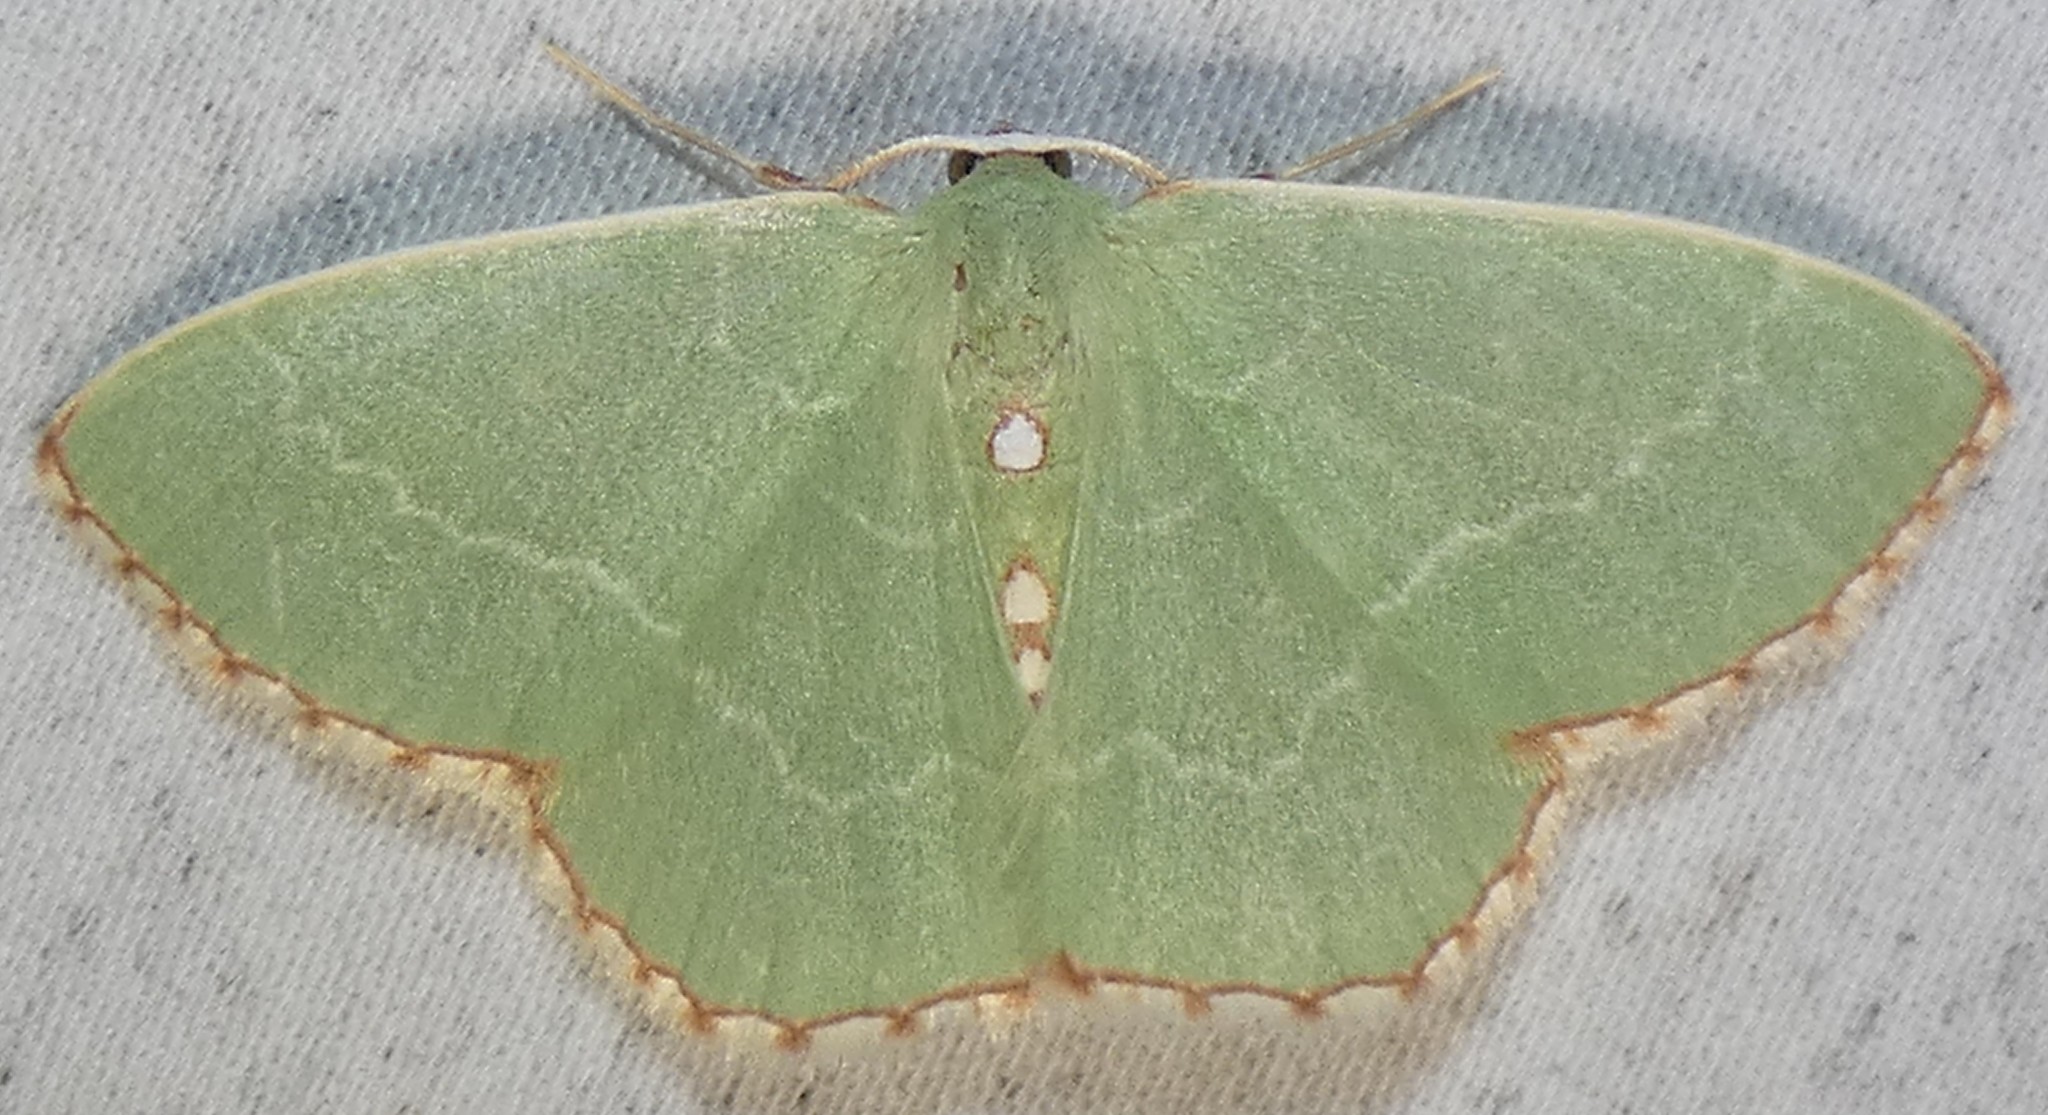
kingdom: Animalia
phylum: Arthropoda
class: Insecta
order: Lepidoptera
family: Geometridae
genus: Nemoria
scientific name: Nemoria lixaria
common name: Red-bordered emerald
